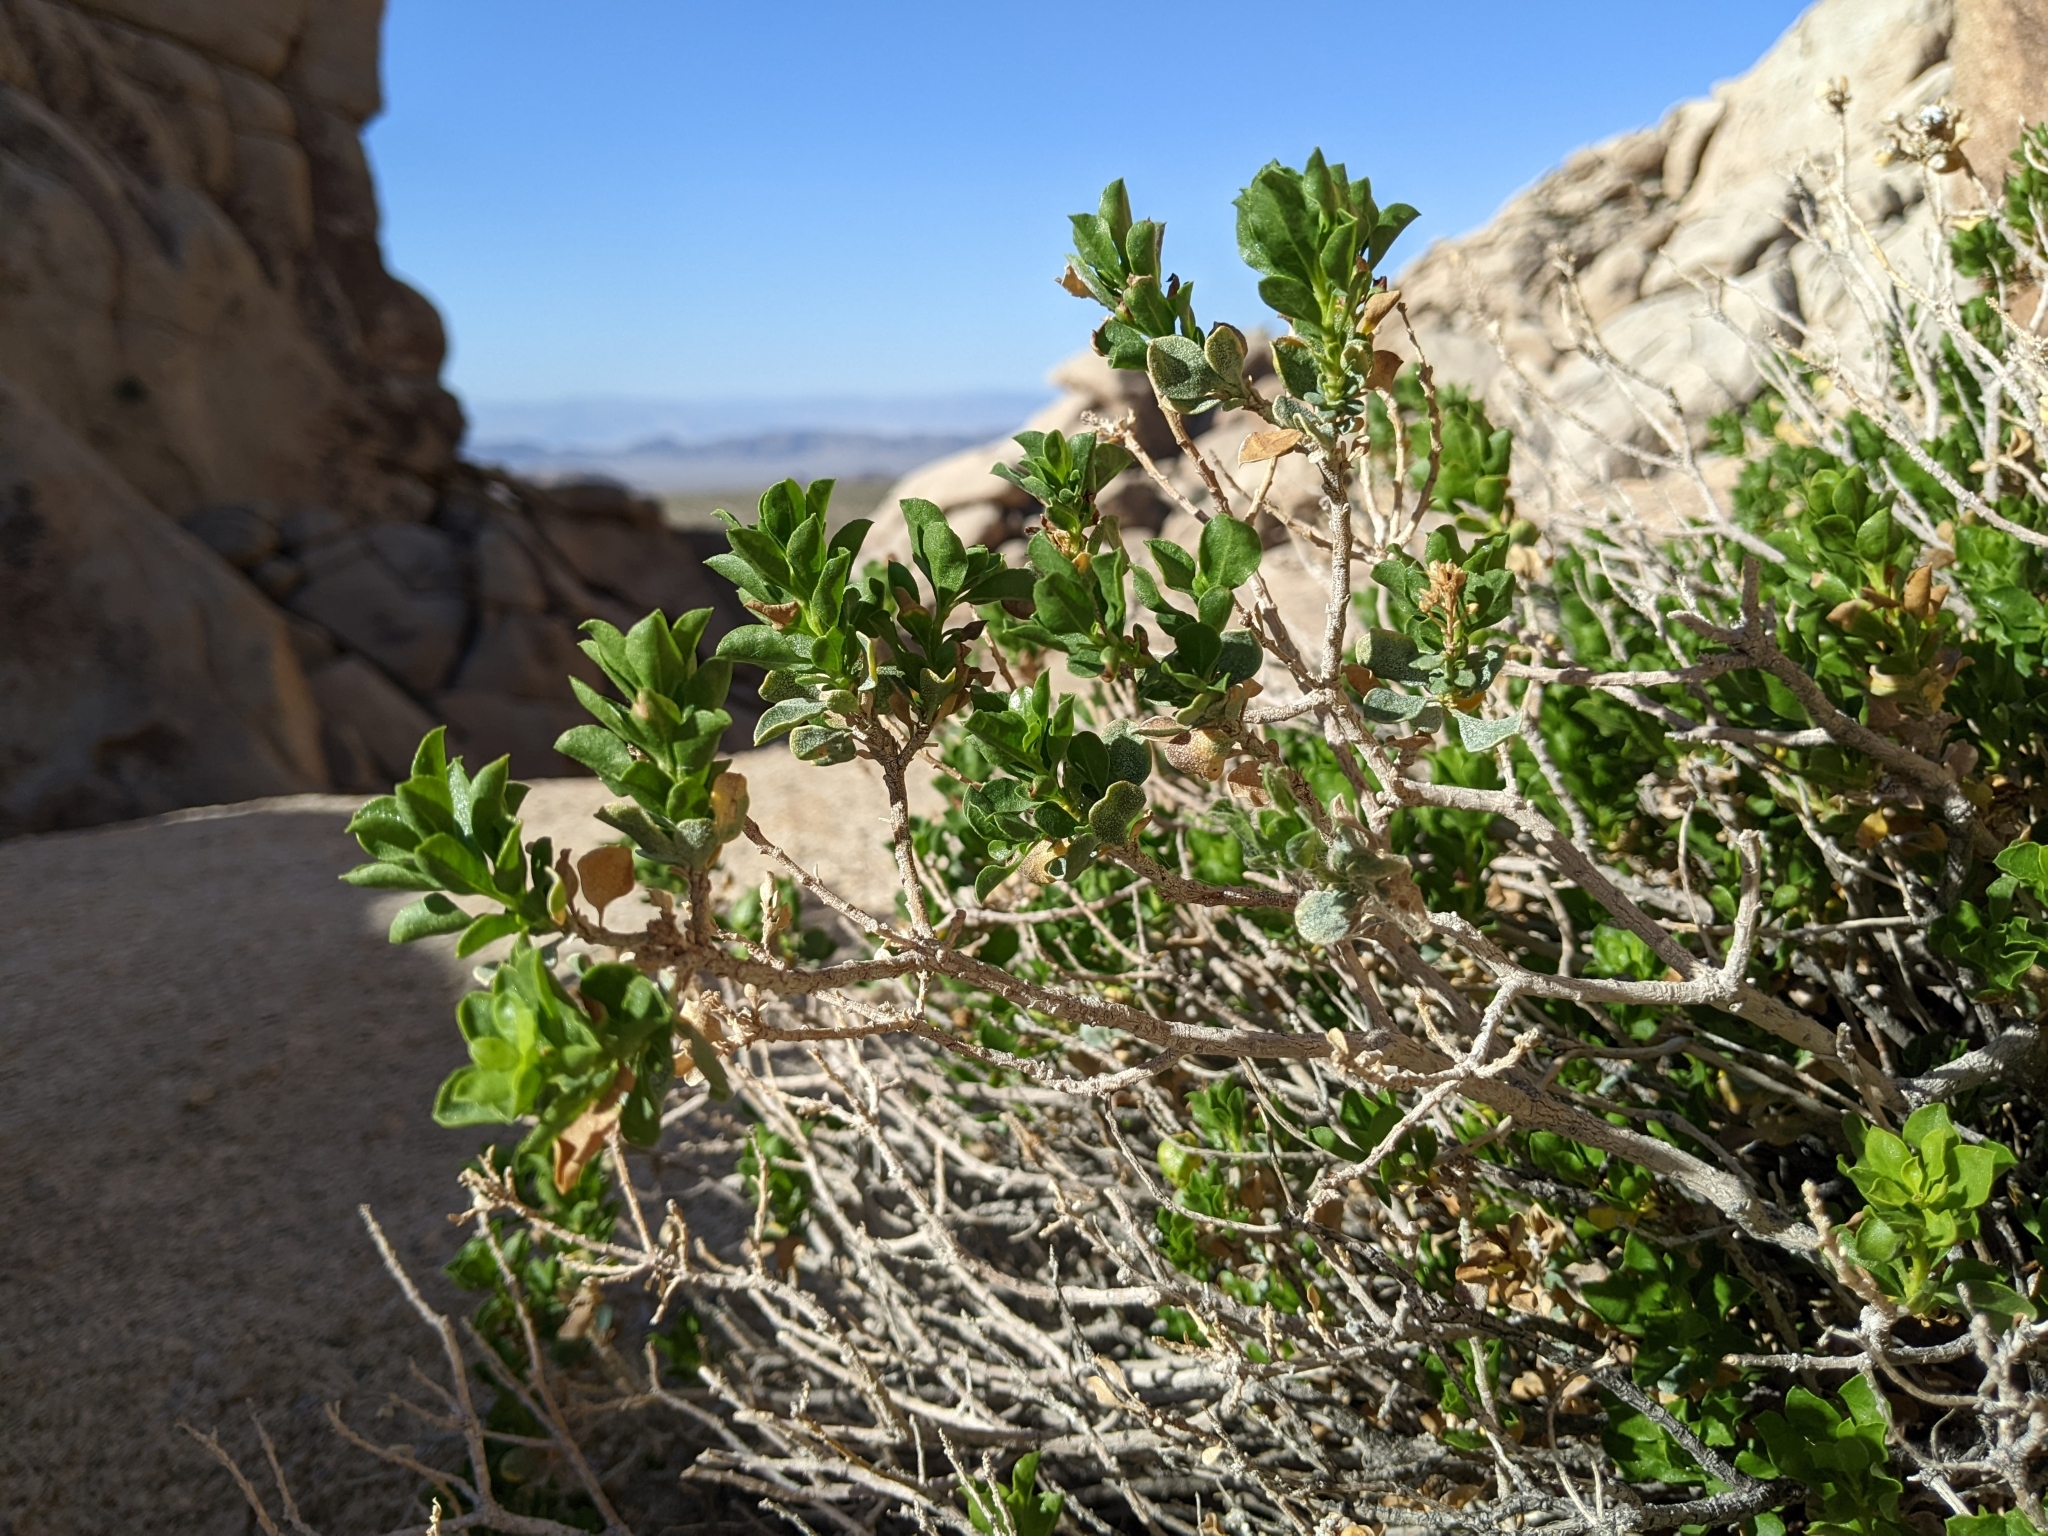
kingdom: Plantae
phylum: Tracheophyta
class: Magnoliopsida
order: Asterales
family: Asteraceae
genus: Ericameria
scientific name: Ericameria cuneata
